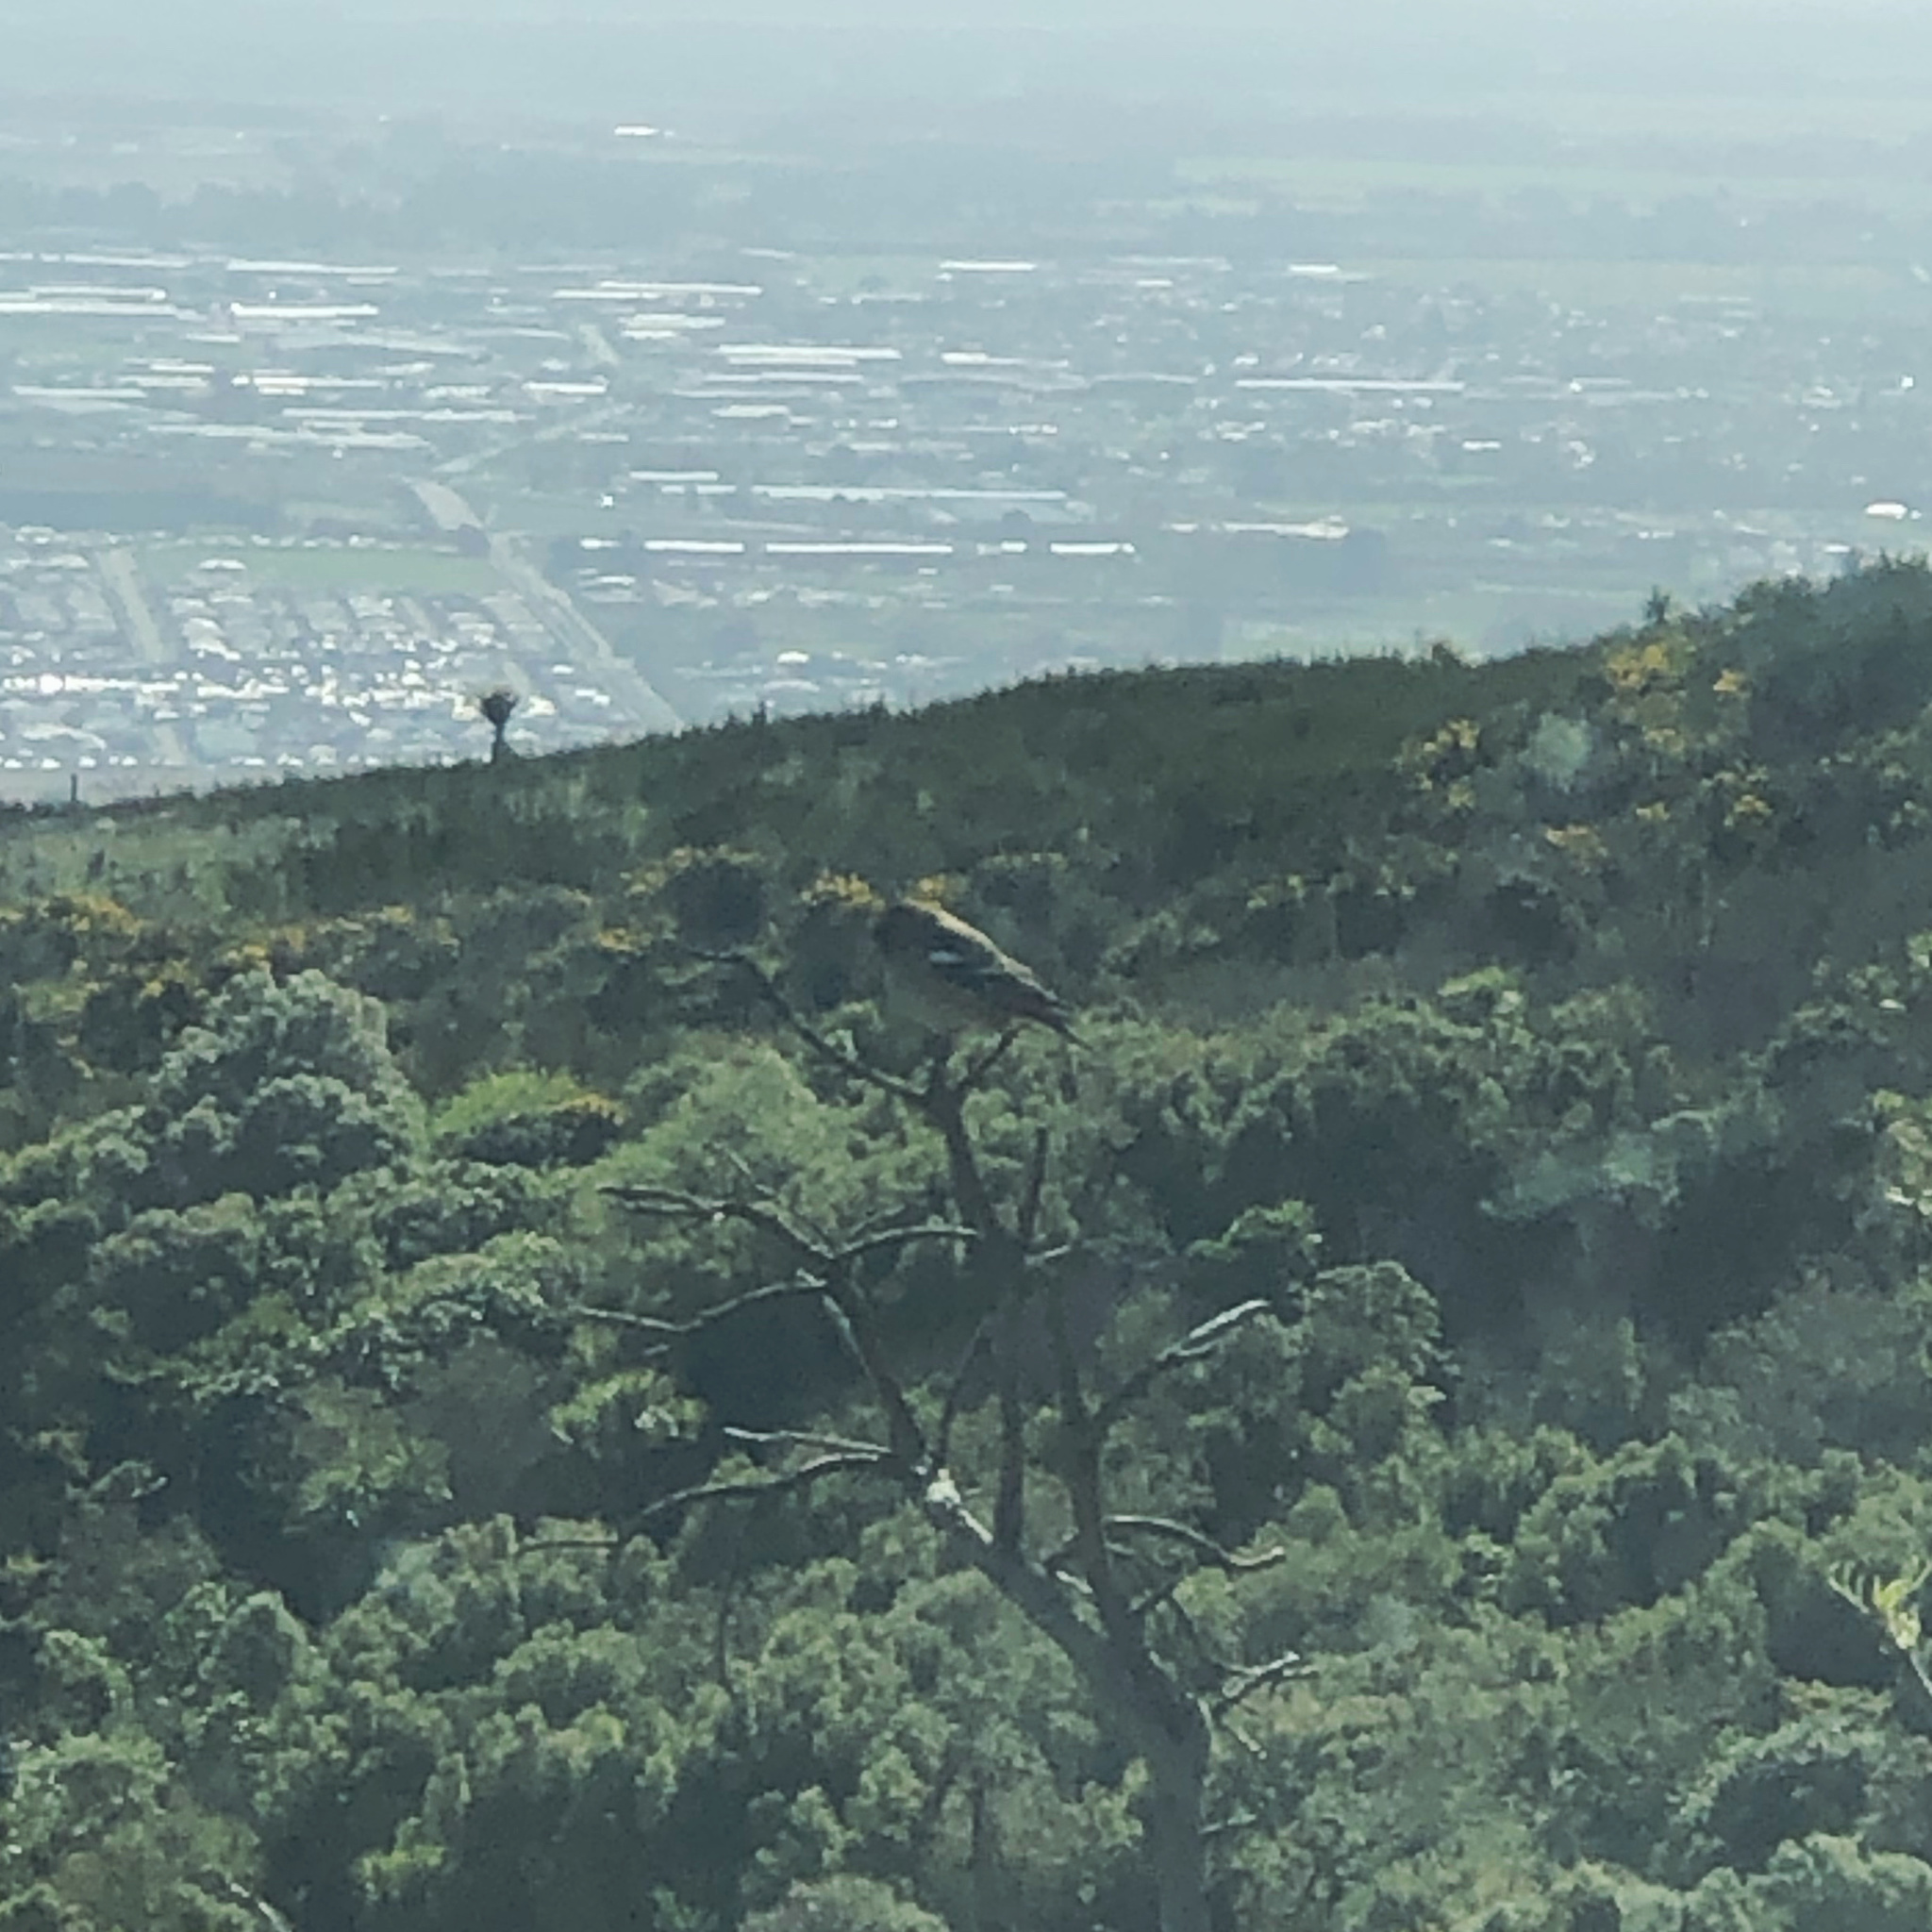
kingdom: Animalia
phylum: Chordata
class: Aves
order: Passeriformes
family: Fringillidae
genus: Fringilla
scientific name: Fringilla coelebs
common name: Common chaffinch
